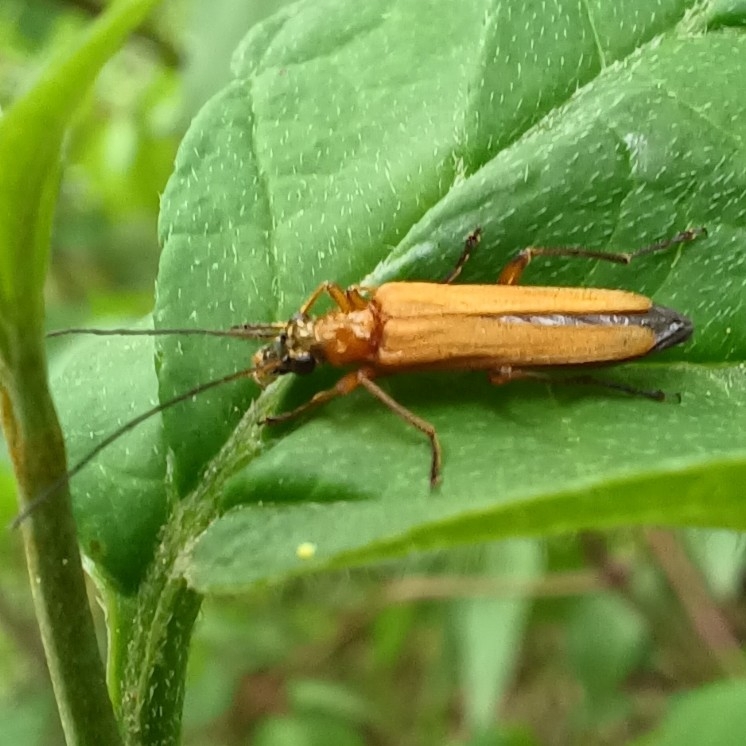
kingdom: Animalia
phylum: Arthropoda
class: Insecta
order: Coleoptera
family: Oedemeridae
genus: Oedemera
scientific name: Oedemera podagrariae
